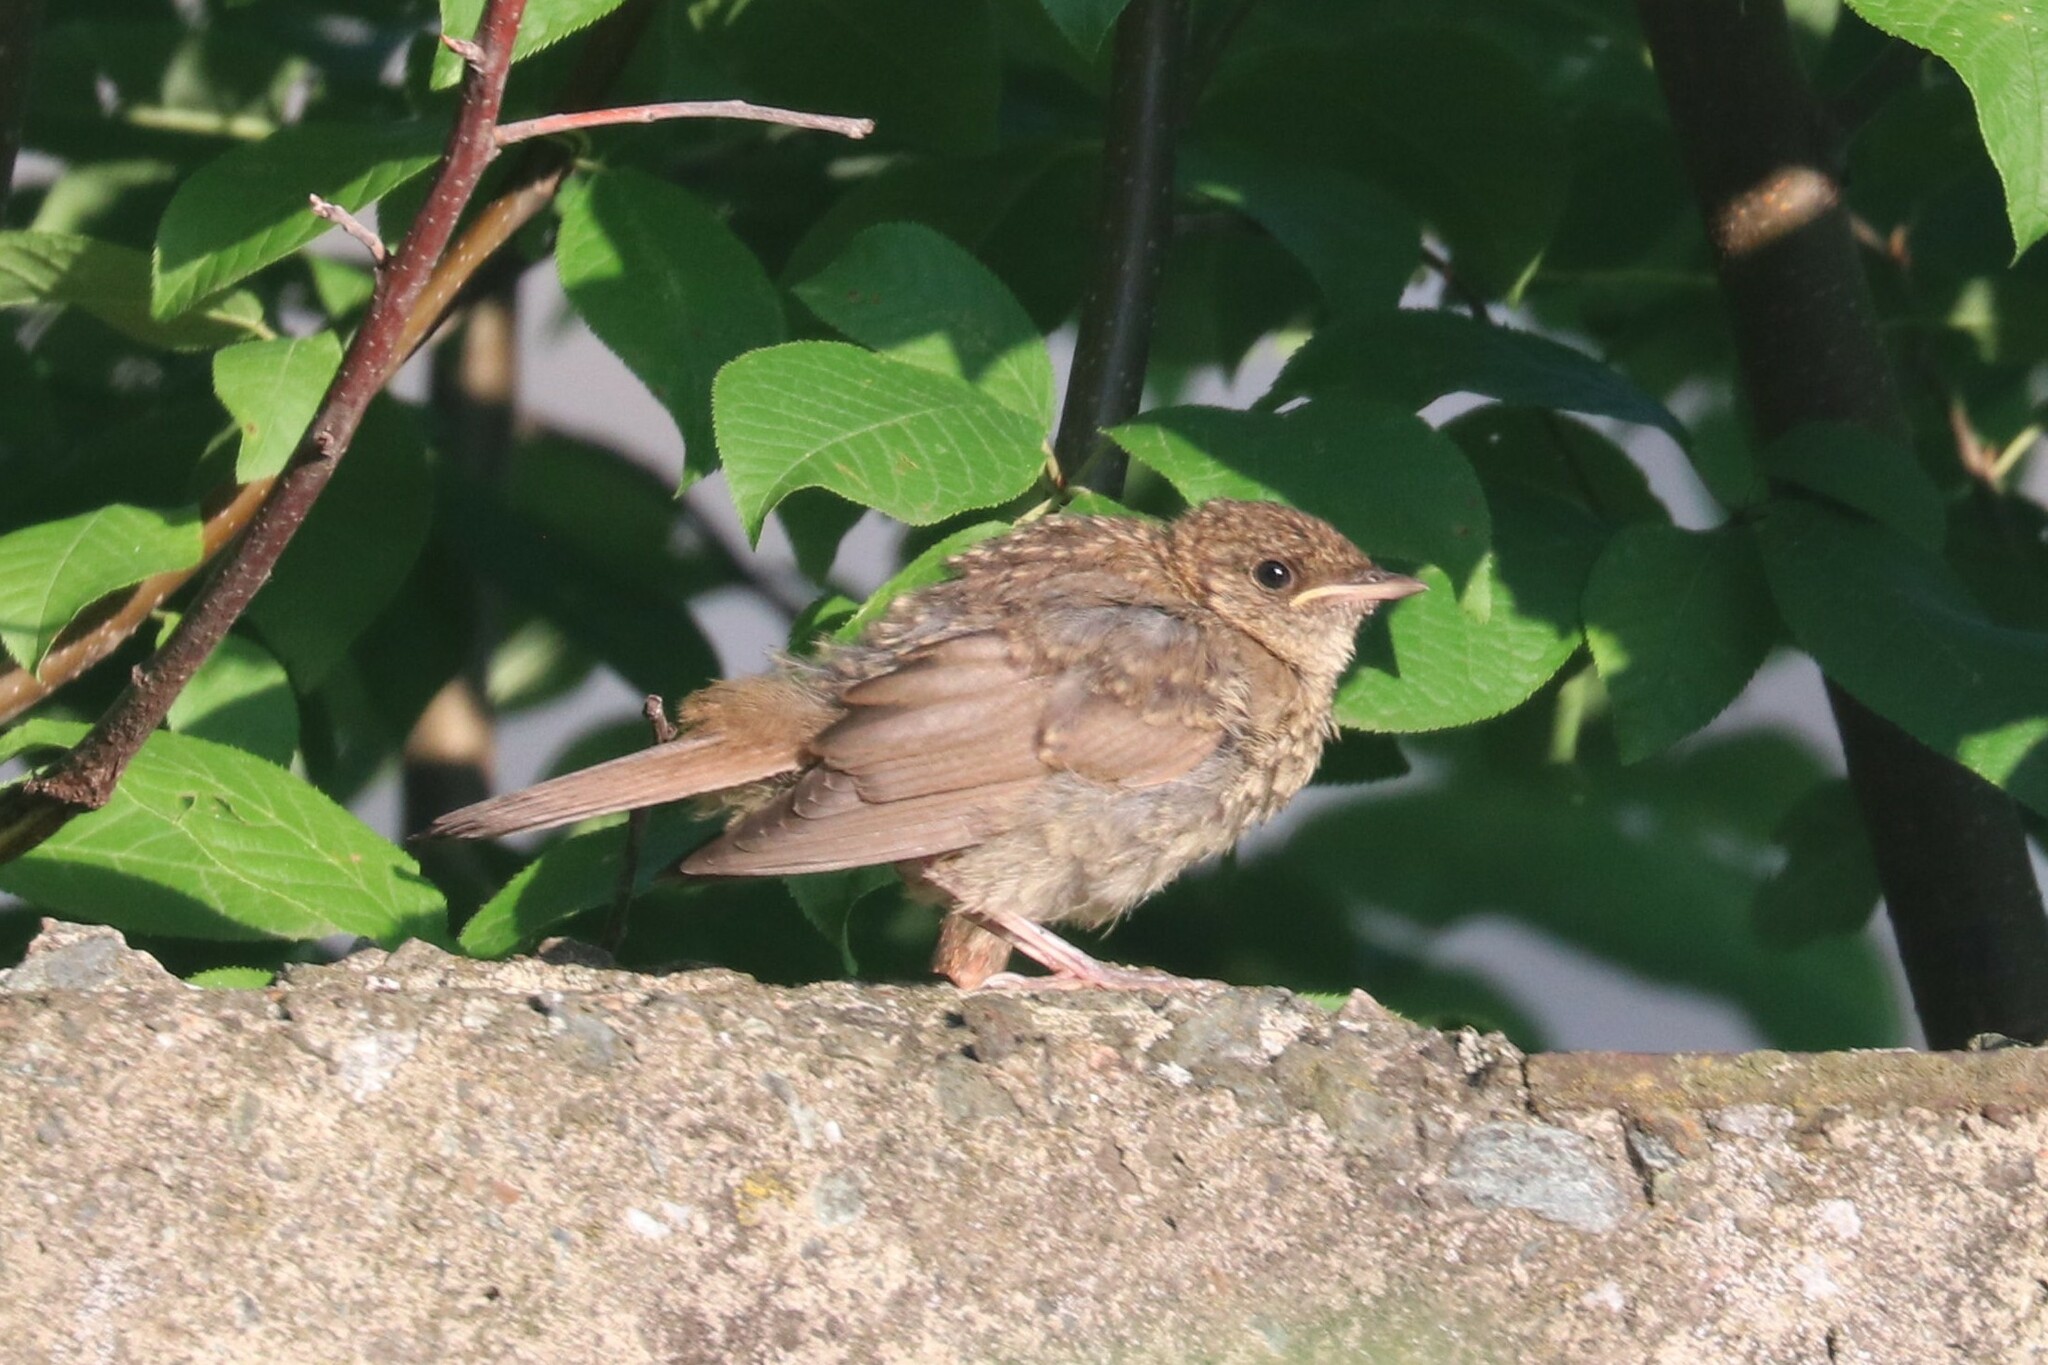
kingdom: Animalia
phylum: Chordata
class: Aves
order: Passeriformes
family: Muscicapidae
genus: Luscinia
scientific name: Luscinia luscinia
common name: Thrush nightingale
